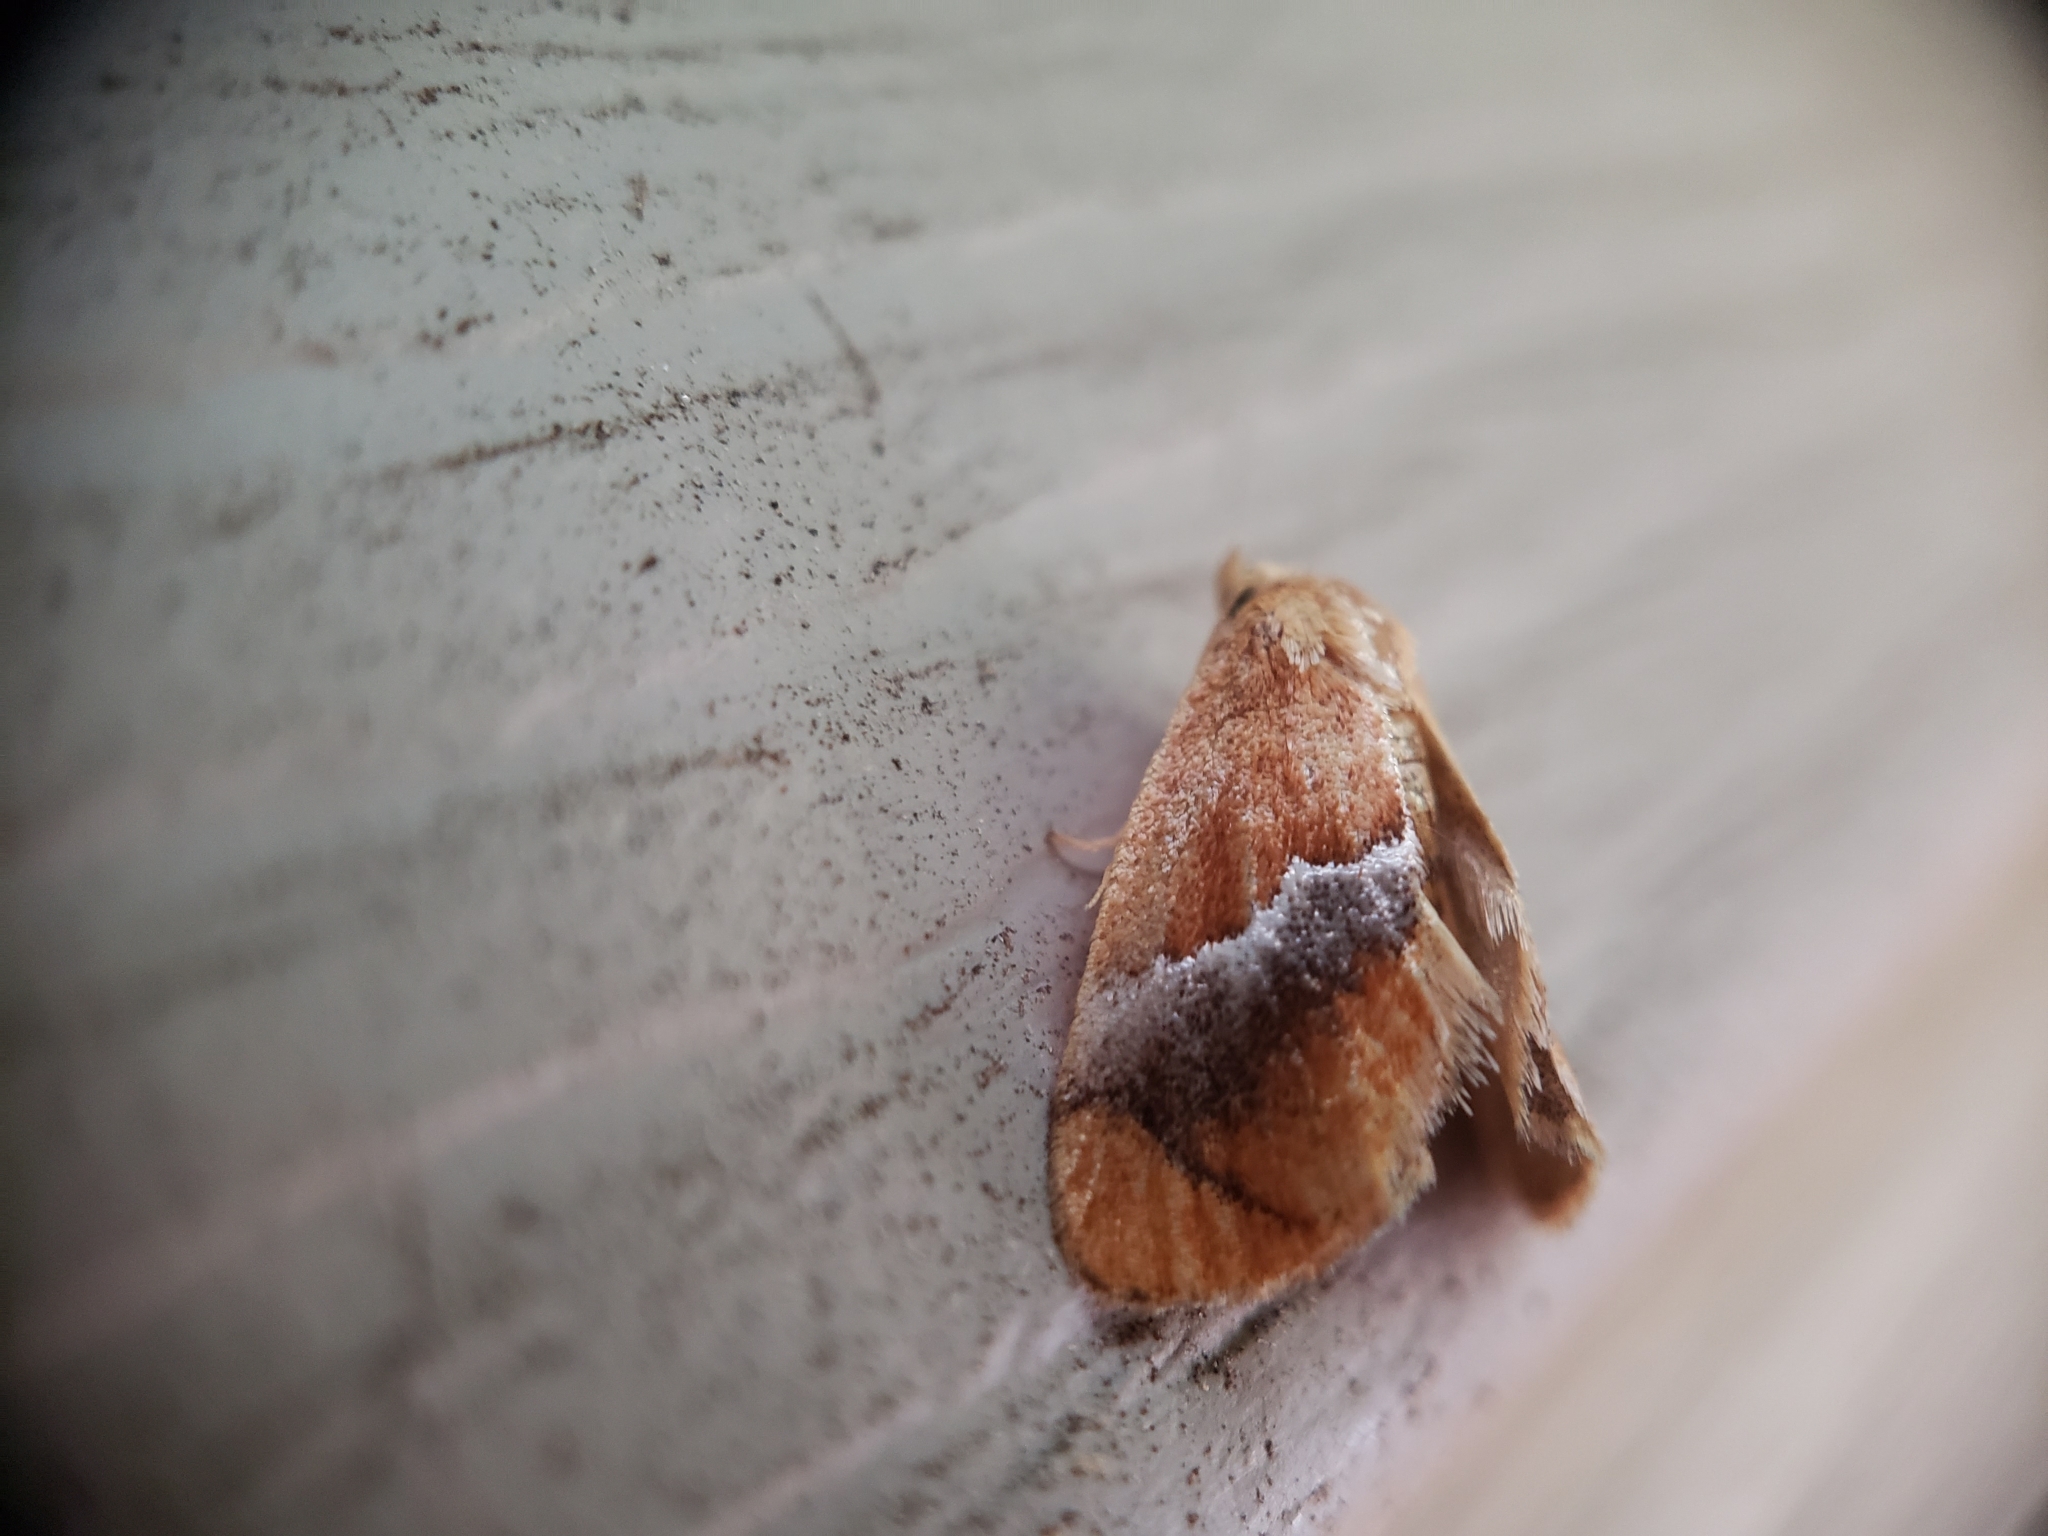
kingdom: Animalia
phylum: Arthropoda
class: Insecta
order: Lepidoptera
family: Limacodidae
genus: Lithacodes
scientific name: Lithacodes fasciola
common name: Yellow-shouldered slug moth
